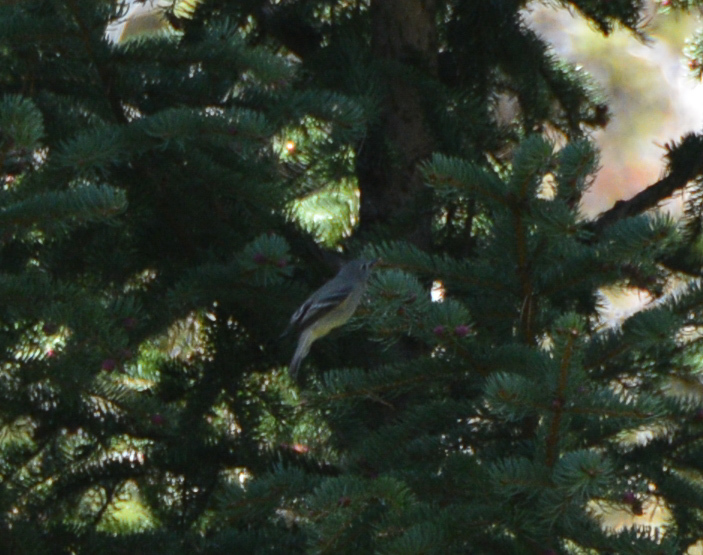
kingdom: Animalia
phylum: Chordata
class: Aves
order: Passeriformes
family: Vireonidae
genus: Vireo
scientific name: Vireo cassinii
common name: Cassin's vireo
